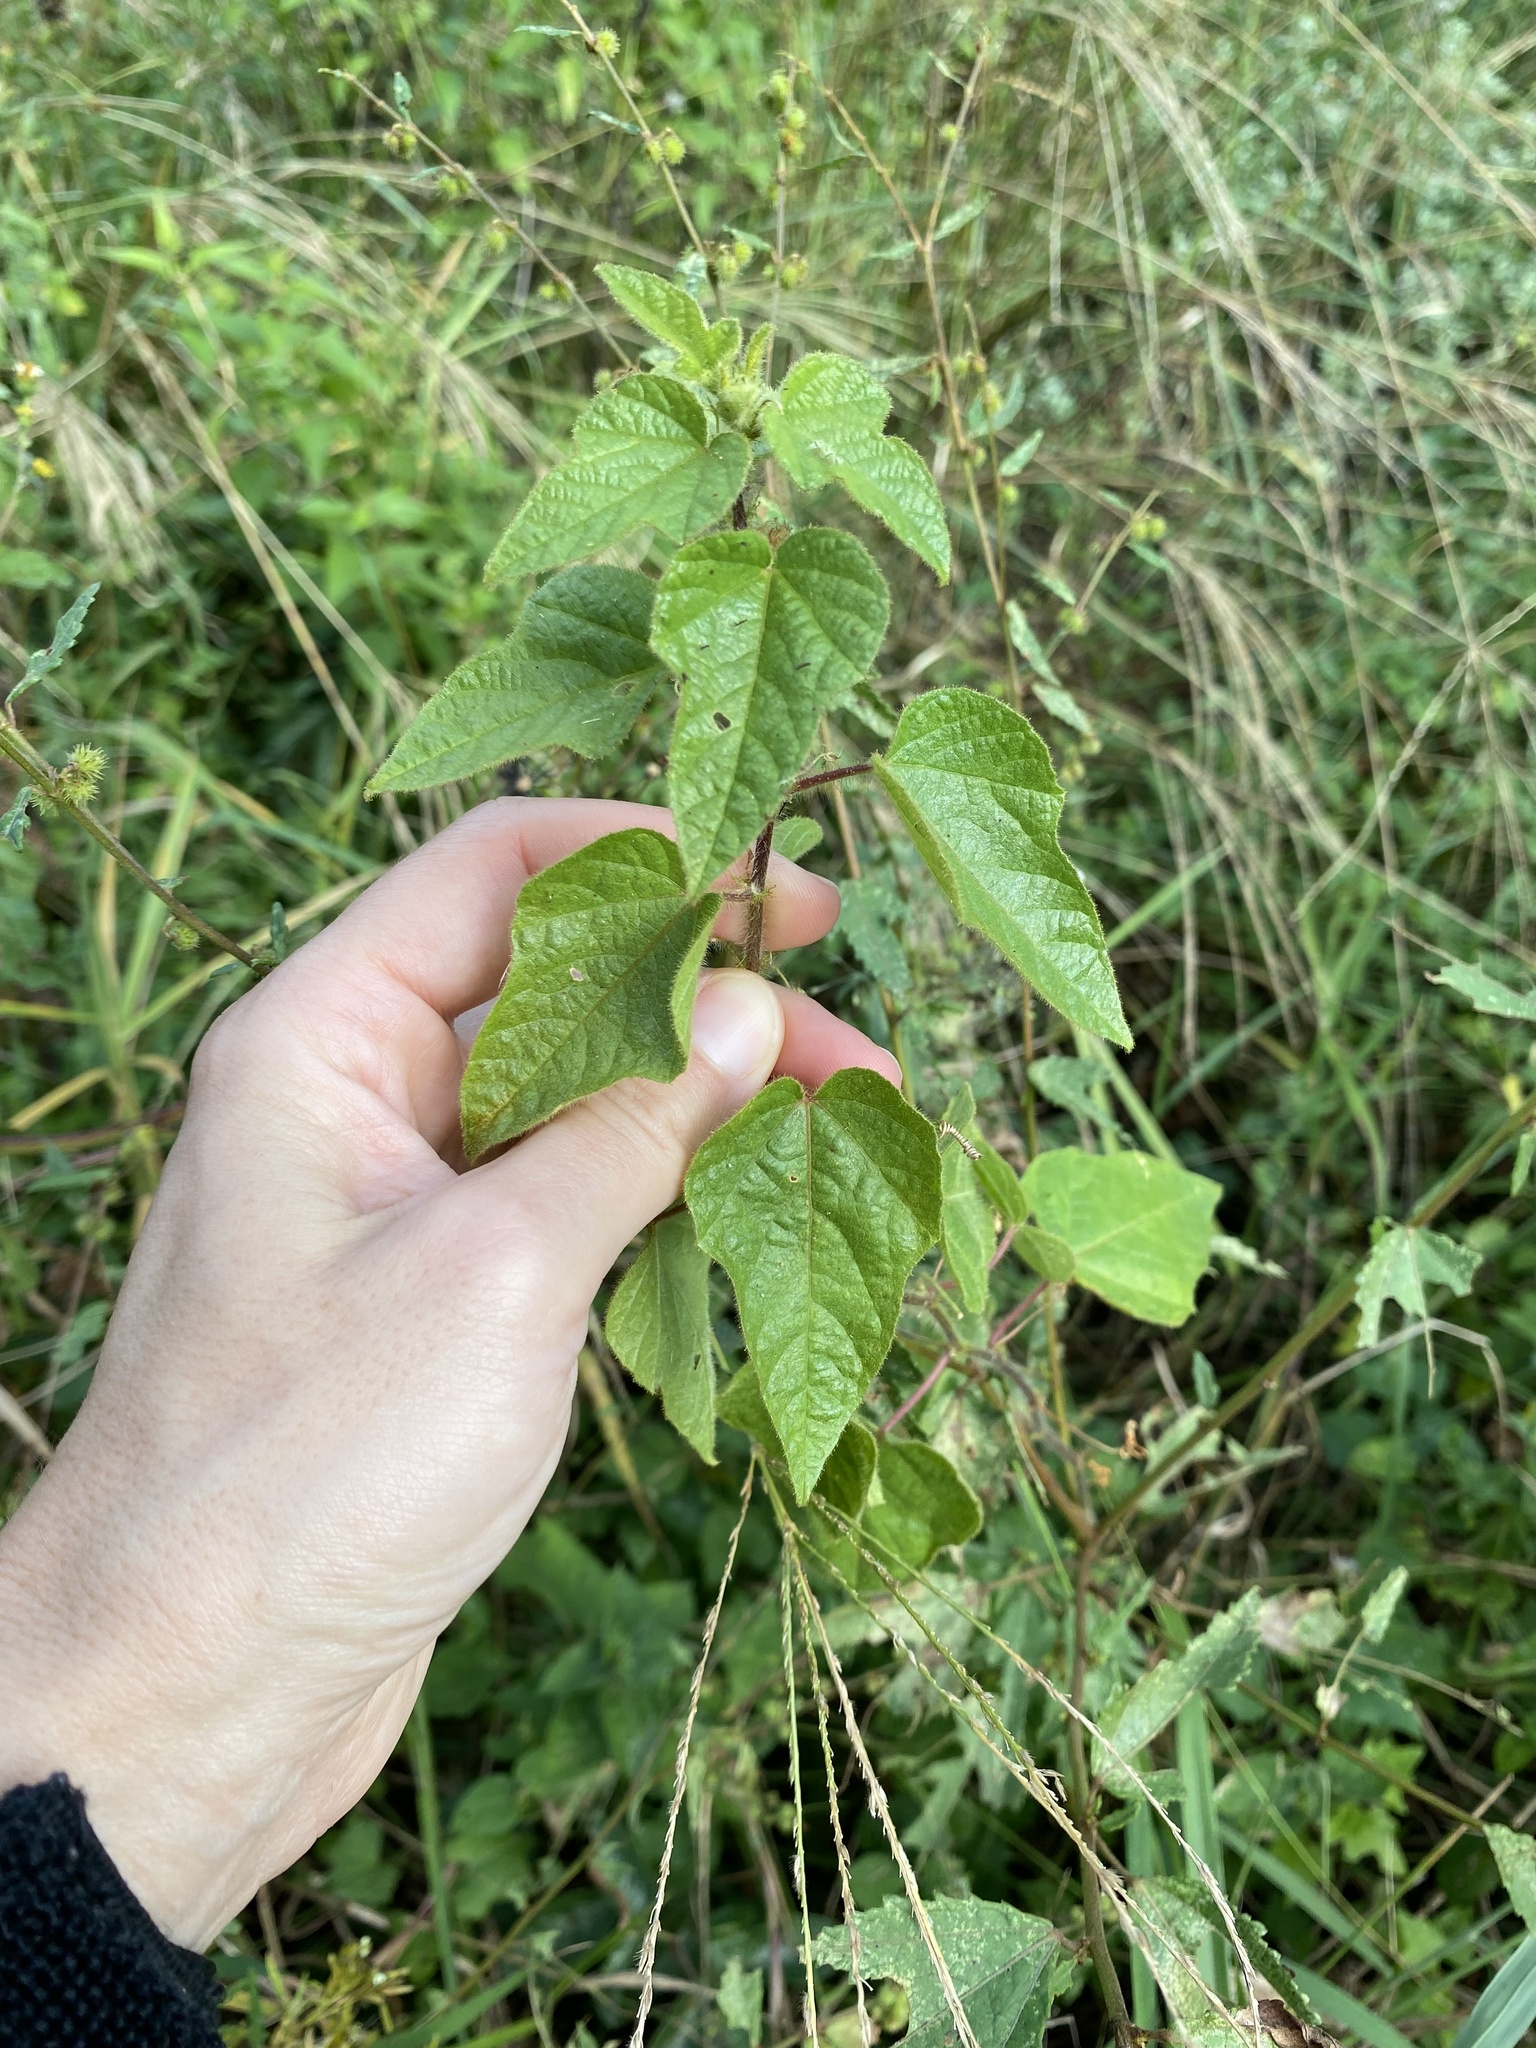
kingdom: Plantae
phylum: Tracheophyta
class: Magnoliopsida
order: Malpighiales
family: Passifloraceae
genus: Passiflora
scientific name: Passiflora vesicaria
